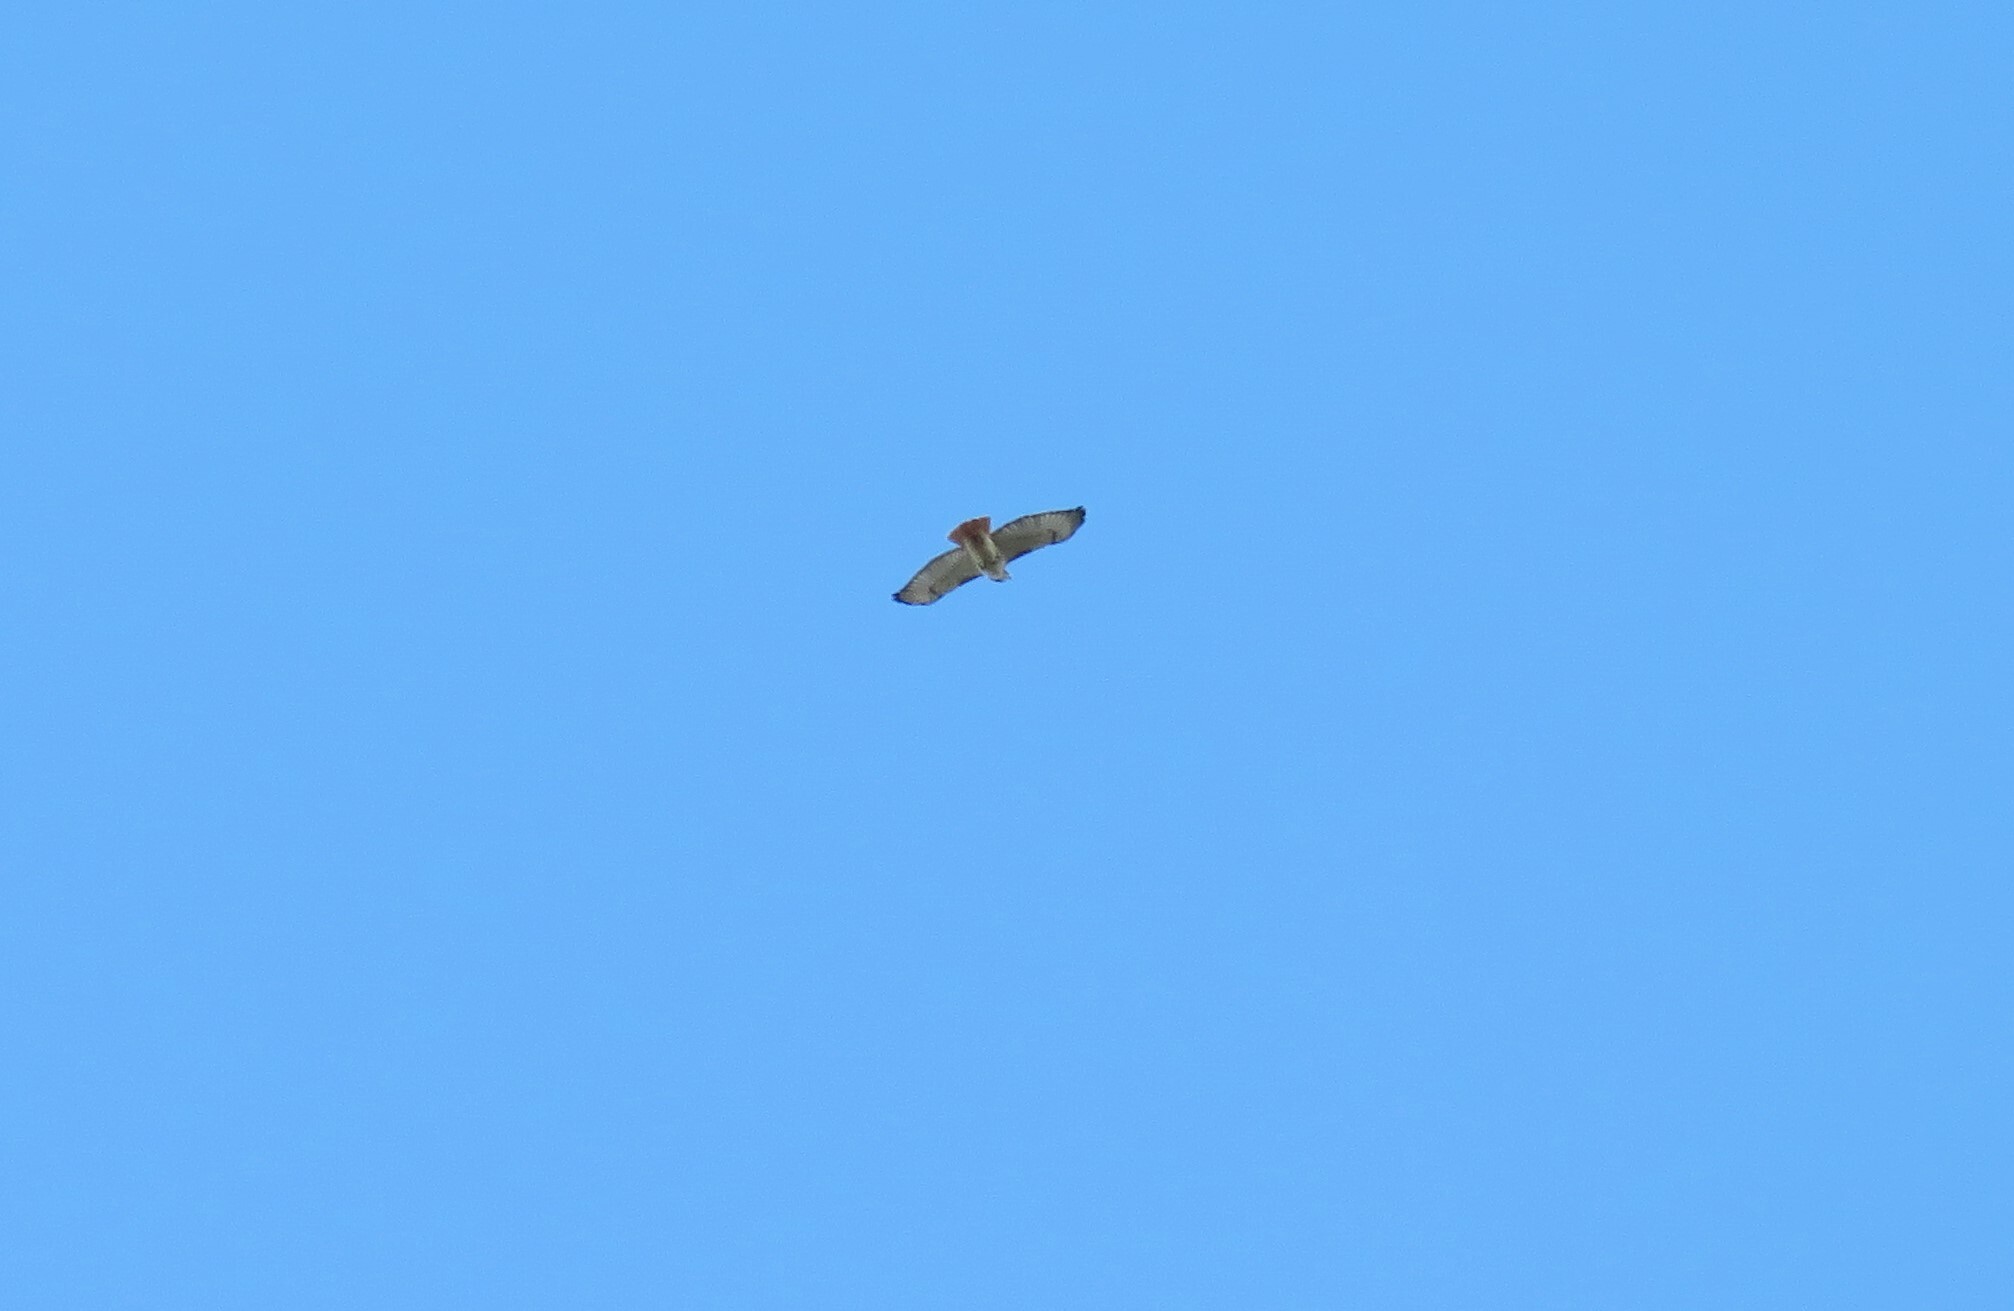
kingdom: Animalia
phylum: Chordata
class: Aves
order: Accipitriformes
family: Accipitridae
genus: Buteo
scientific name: Buteo jamaicensis
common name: Red-tailed hawk
